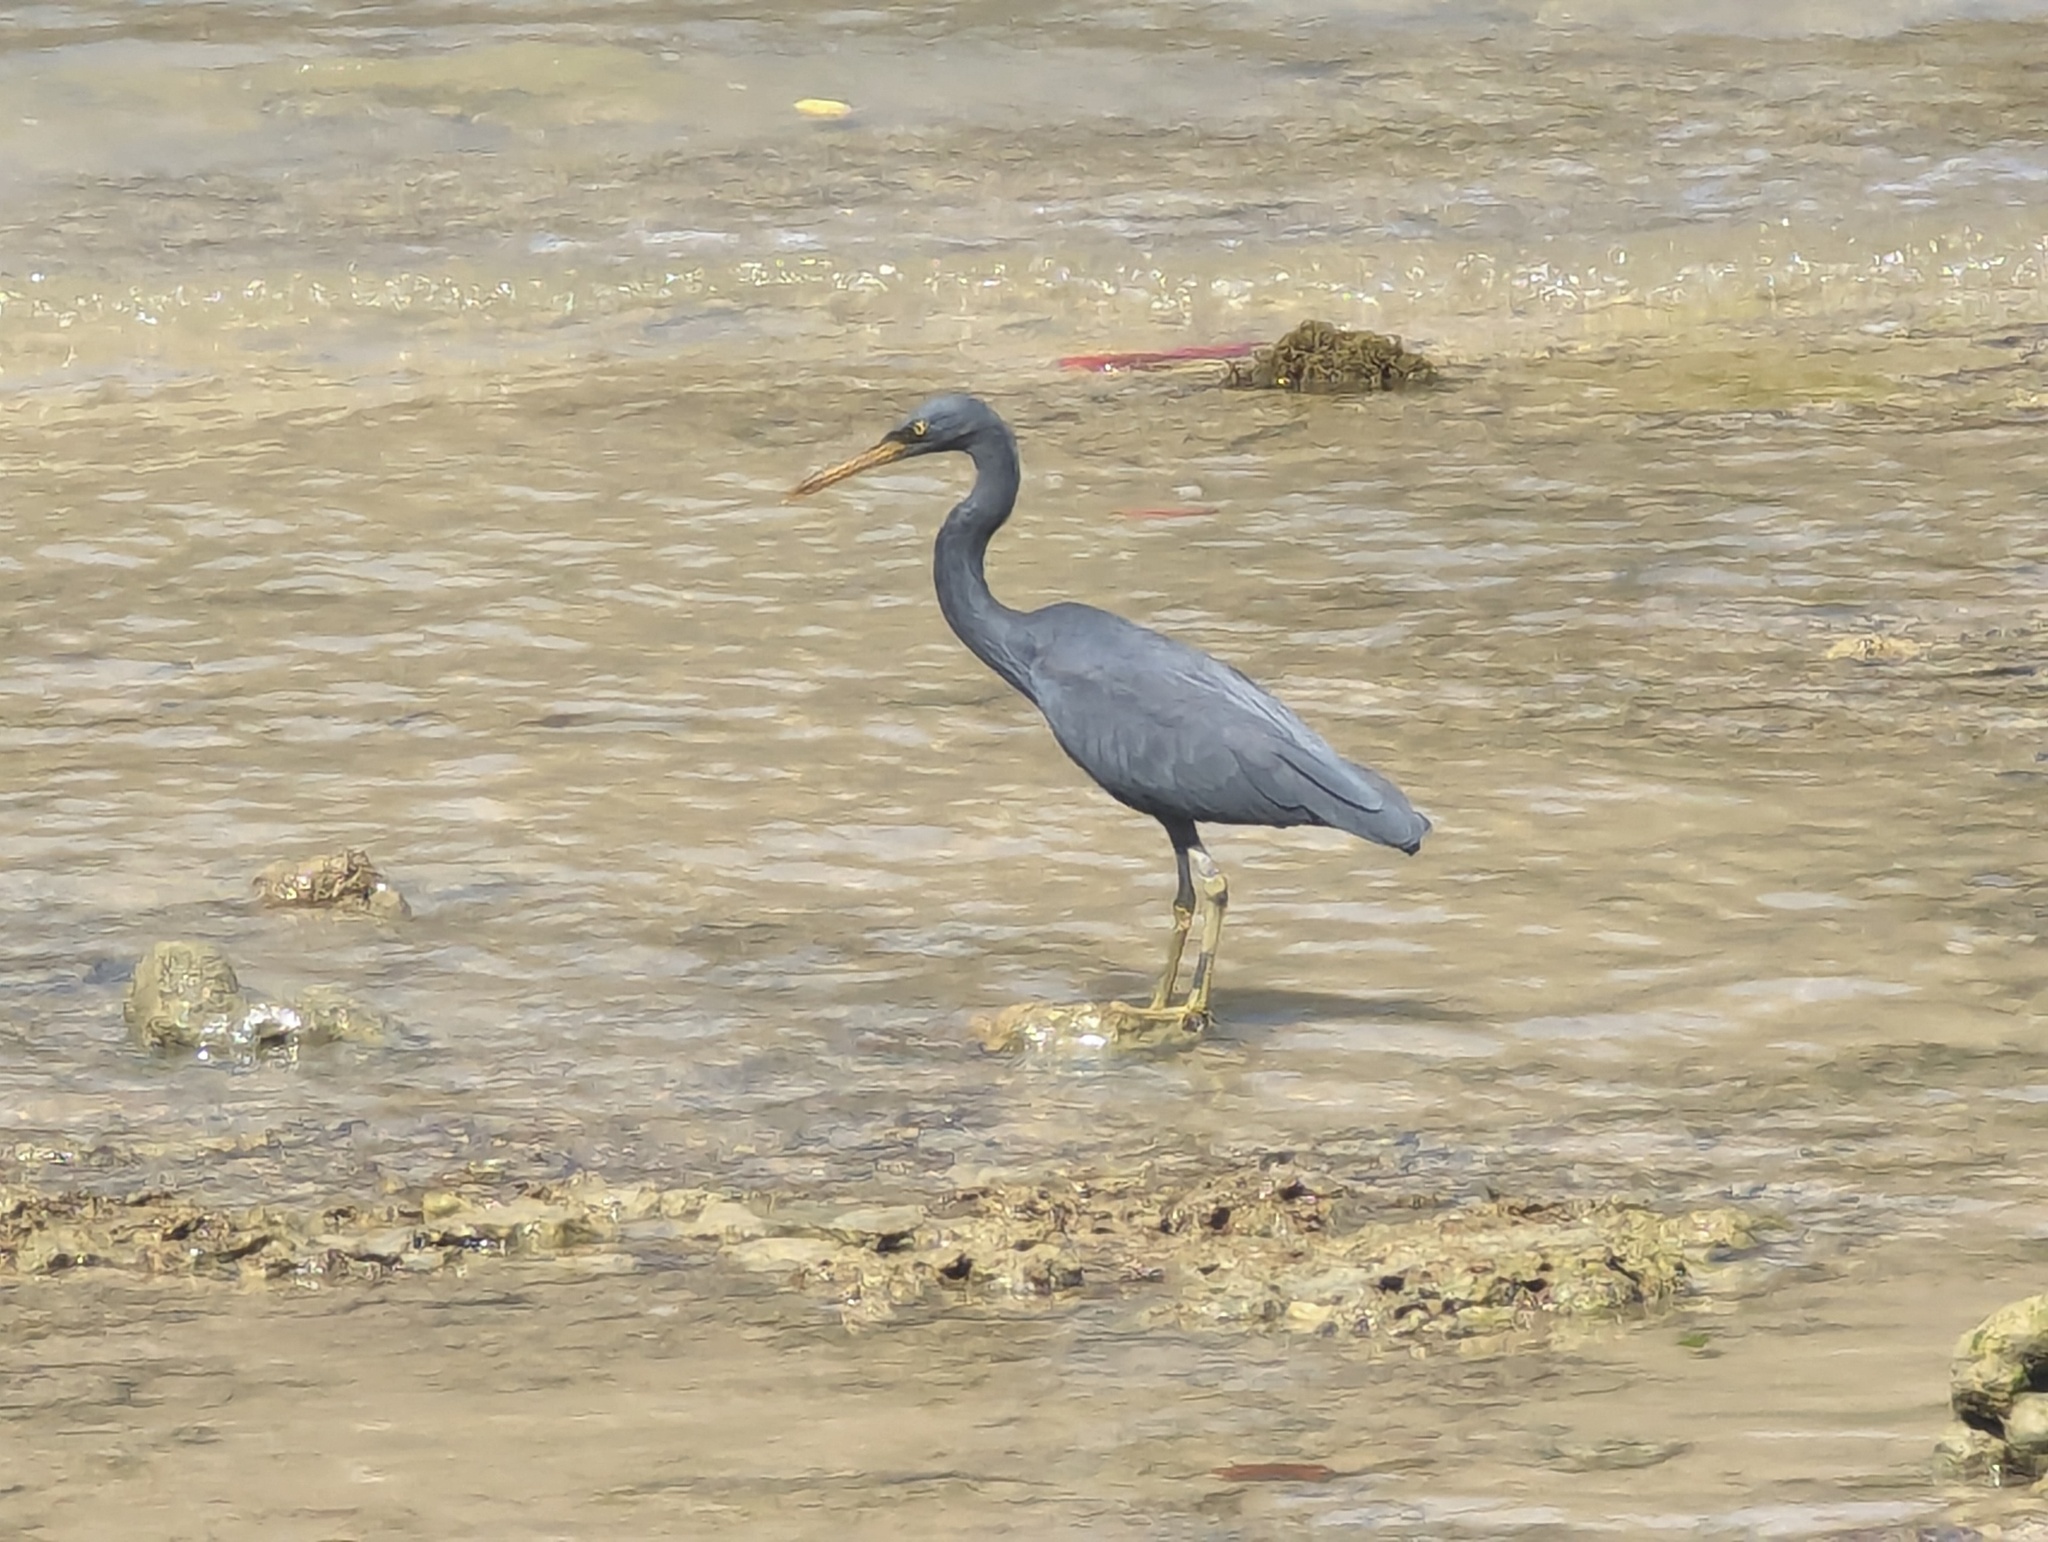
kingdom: Animalia
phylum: Chordata
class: Aves
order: Pelecaniformes
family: Ardeidae
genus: Egretta
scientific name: Egretta sacra
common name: Pacific reef heron
